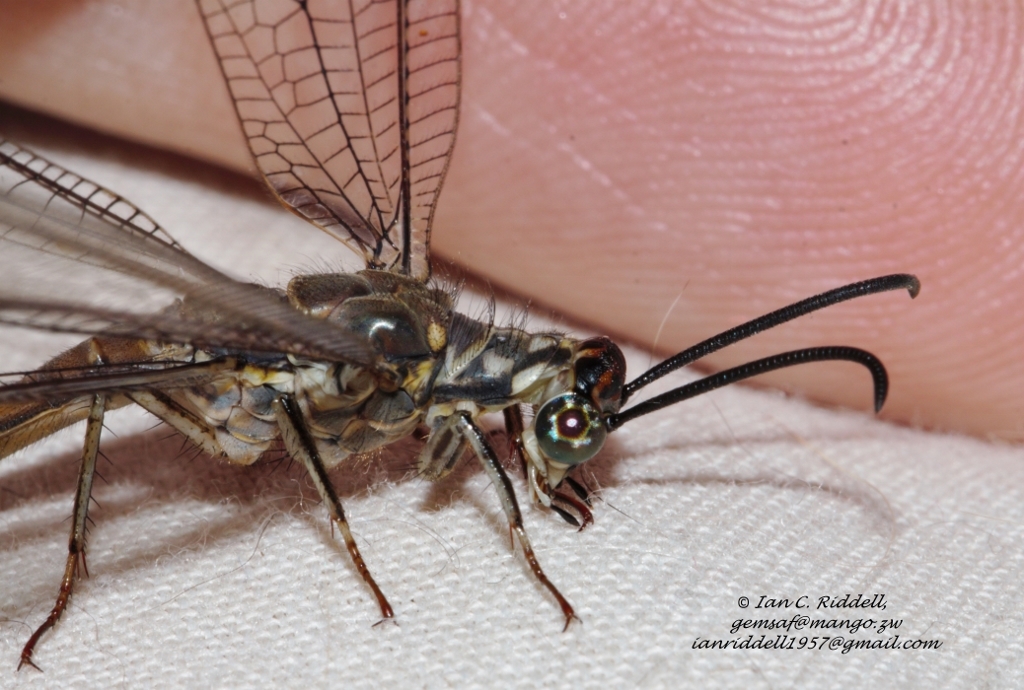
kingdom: Animalia
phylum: Arthropoda
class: Insecta
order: Neuroptera
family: Myrmeleontidae
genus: Myrmeleon
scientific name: Myrmeleon quinquemaculatus
